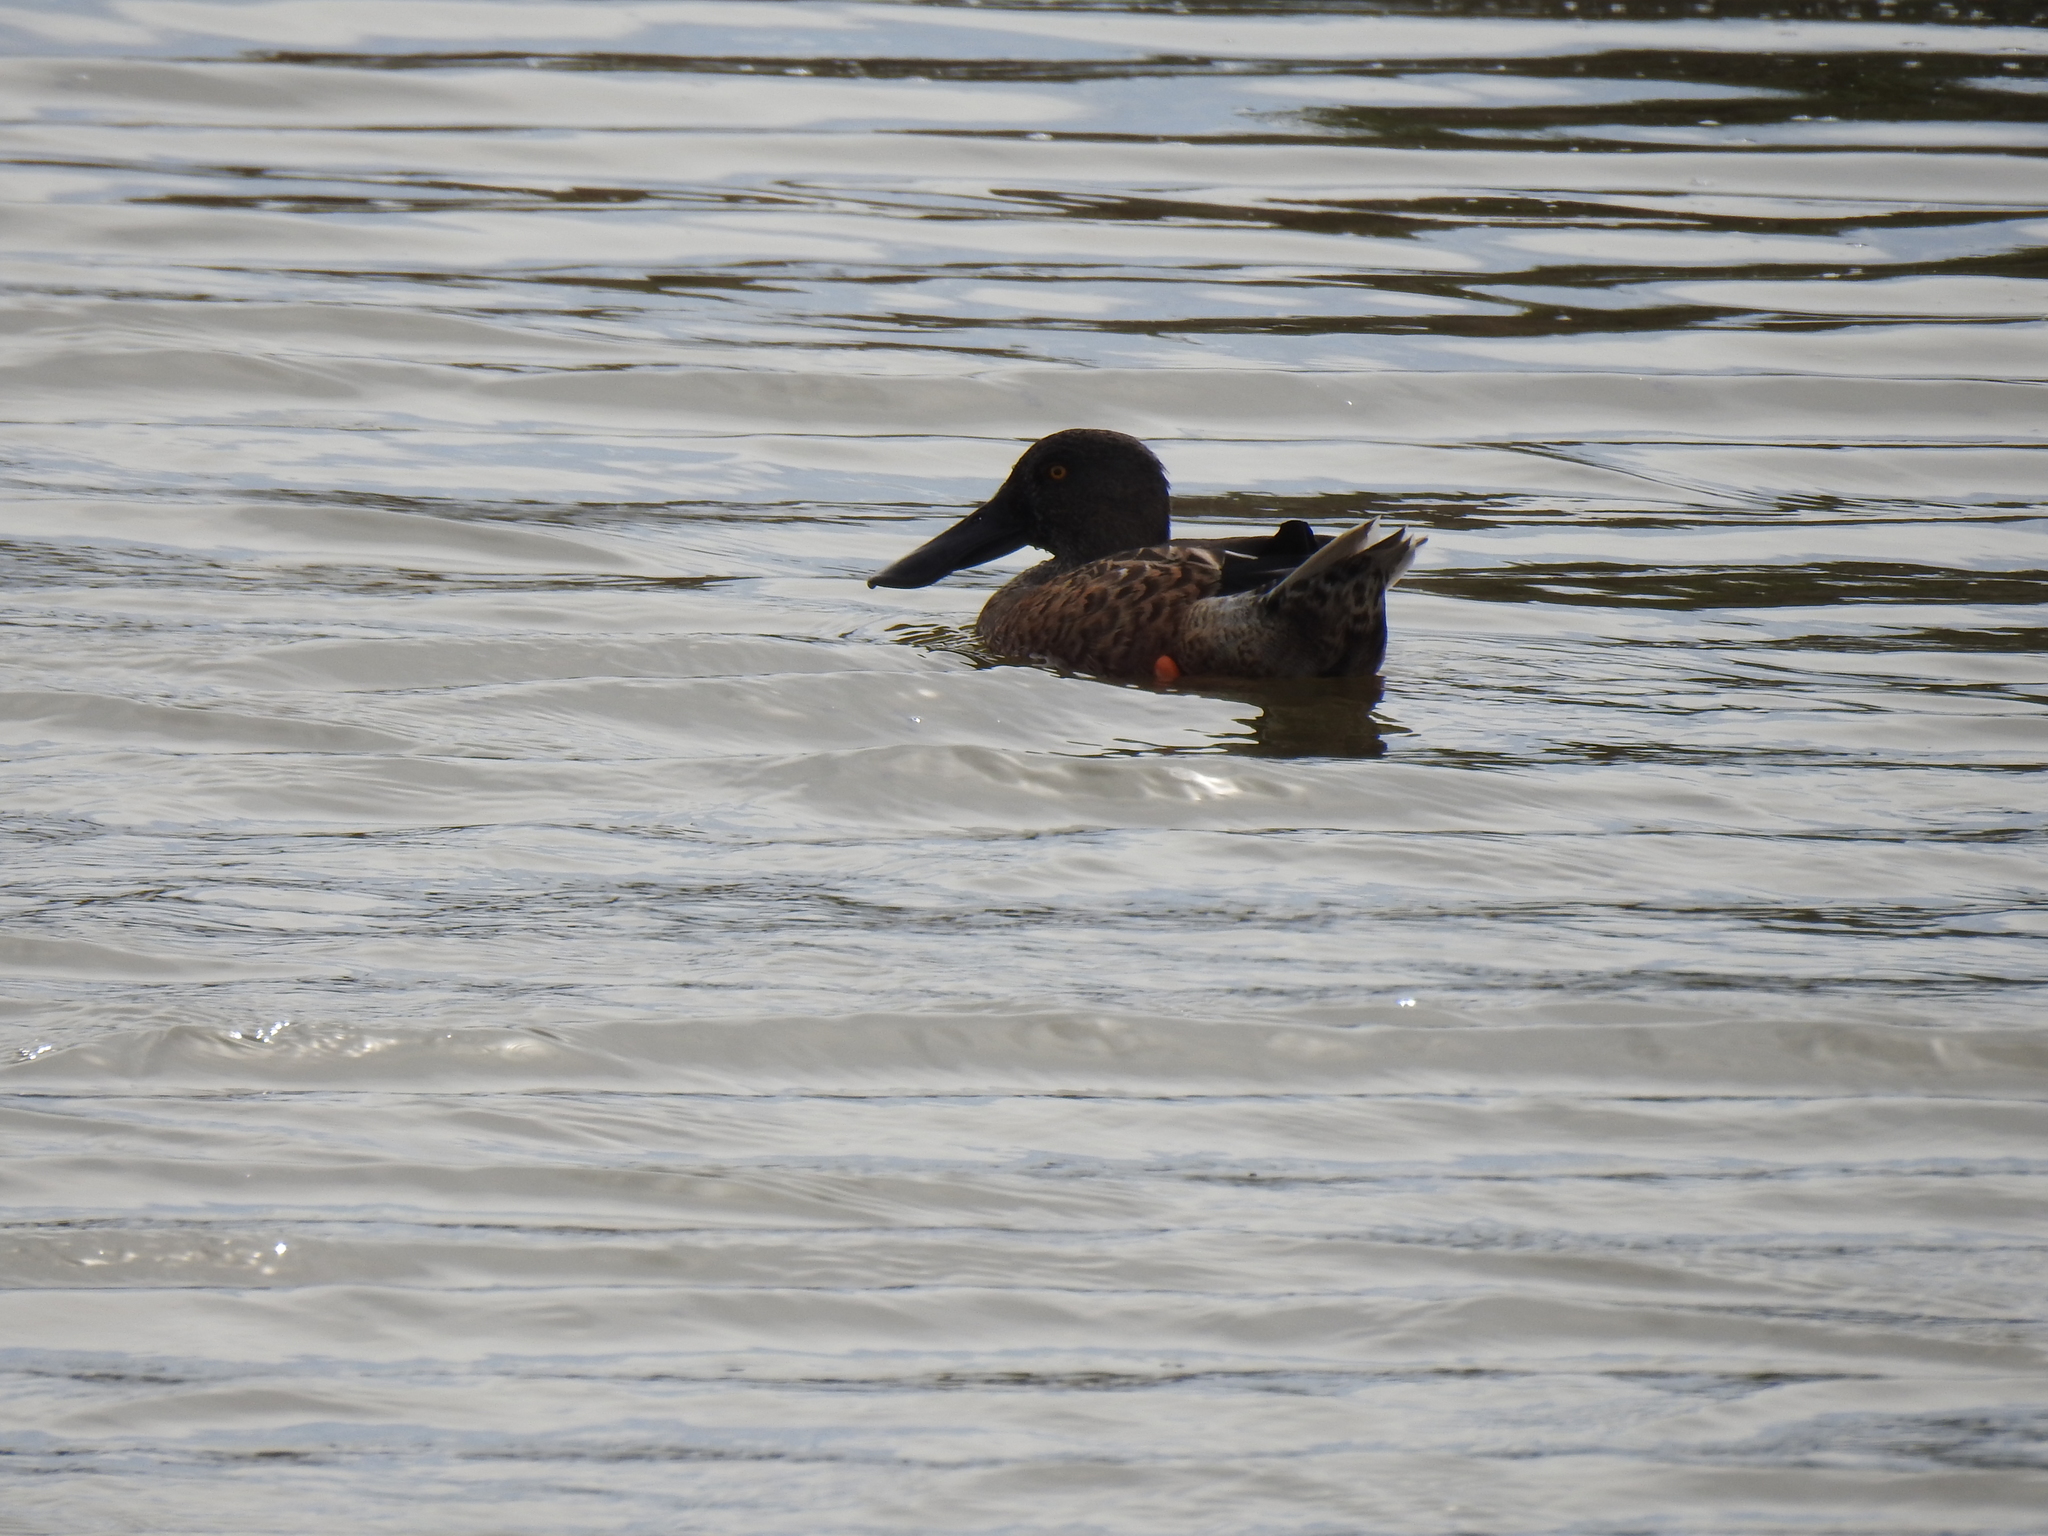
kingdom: Animalia
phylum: Chordata
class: Aves
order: Anseriformes
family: Anatidae
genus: Spatula
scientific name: Spatula clypeata
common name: Northern shoveler
